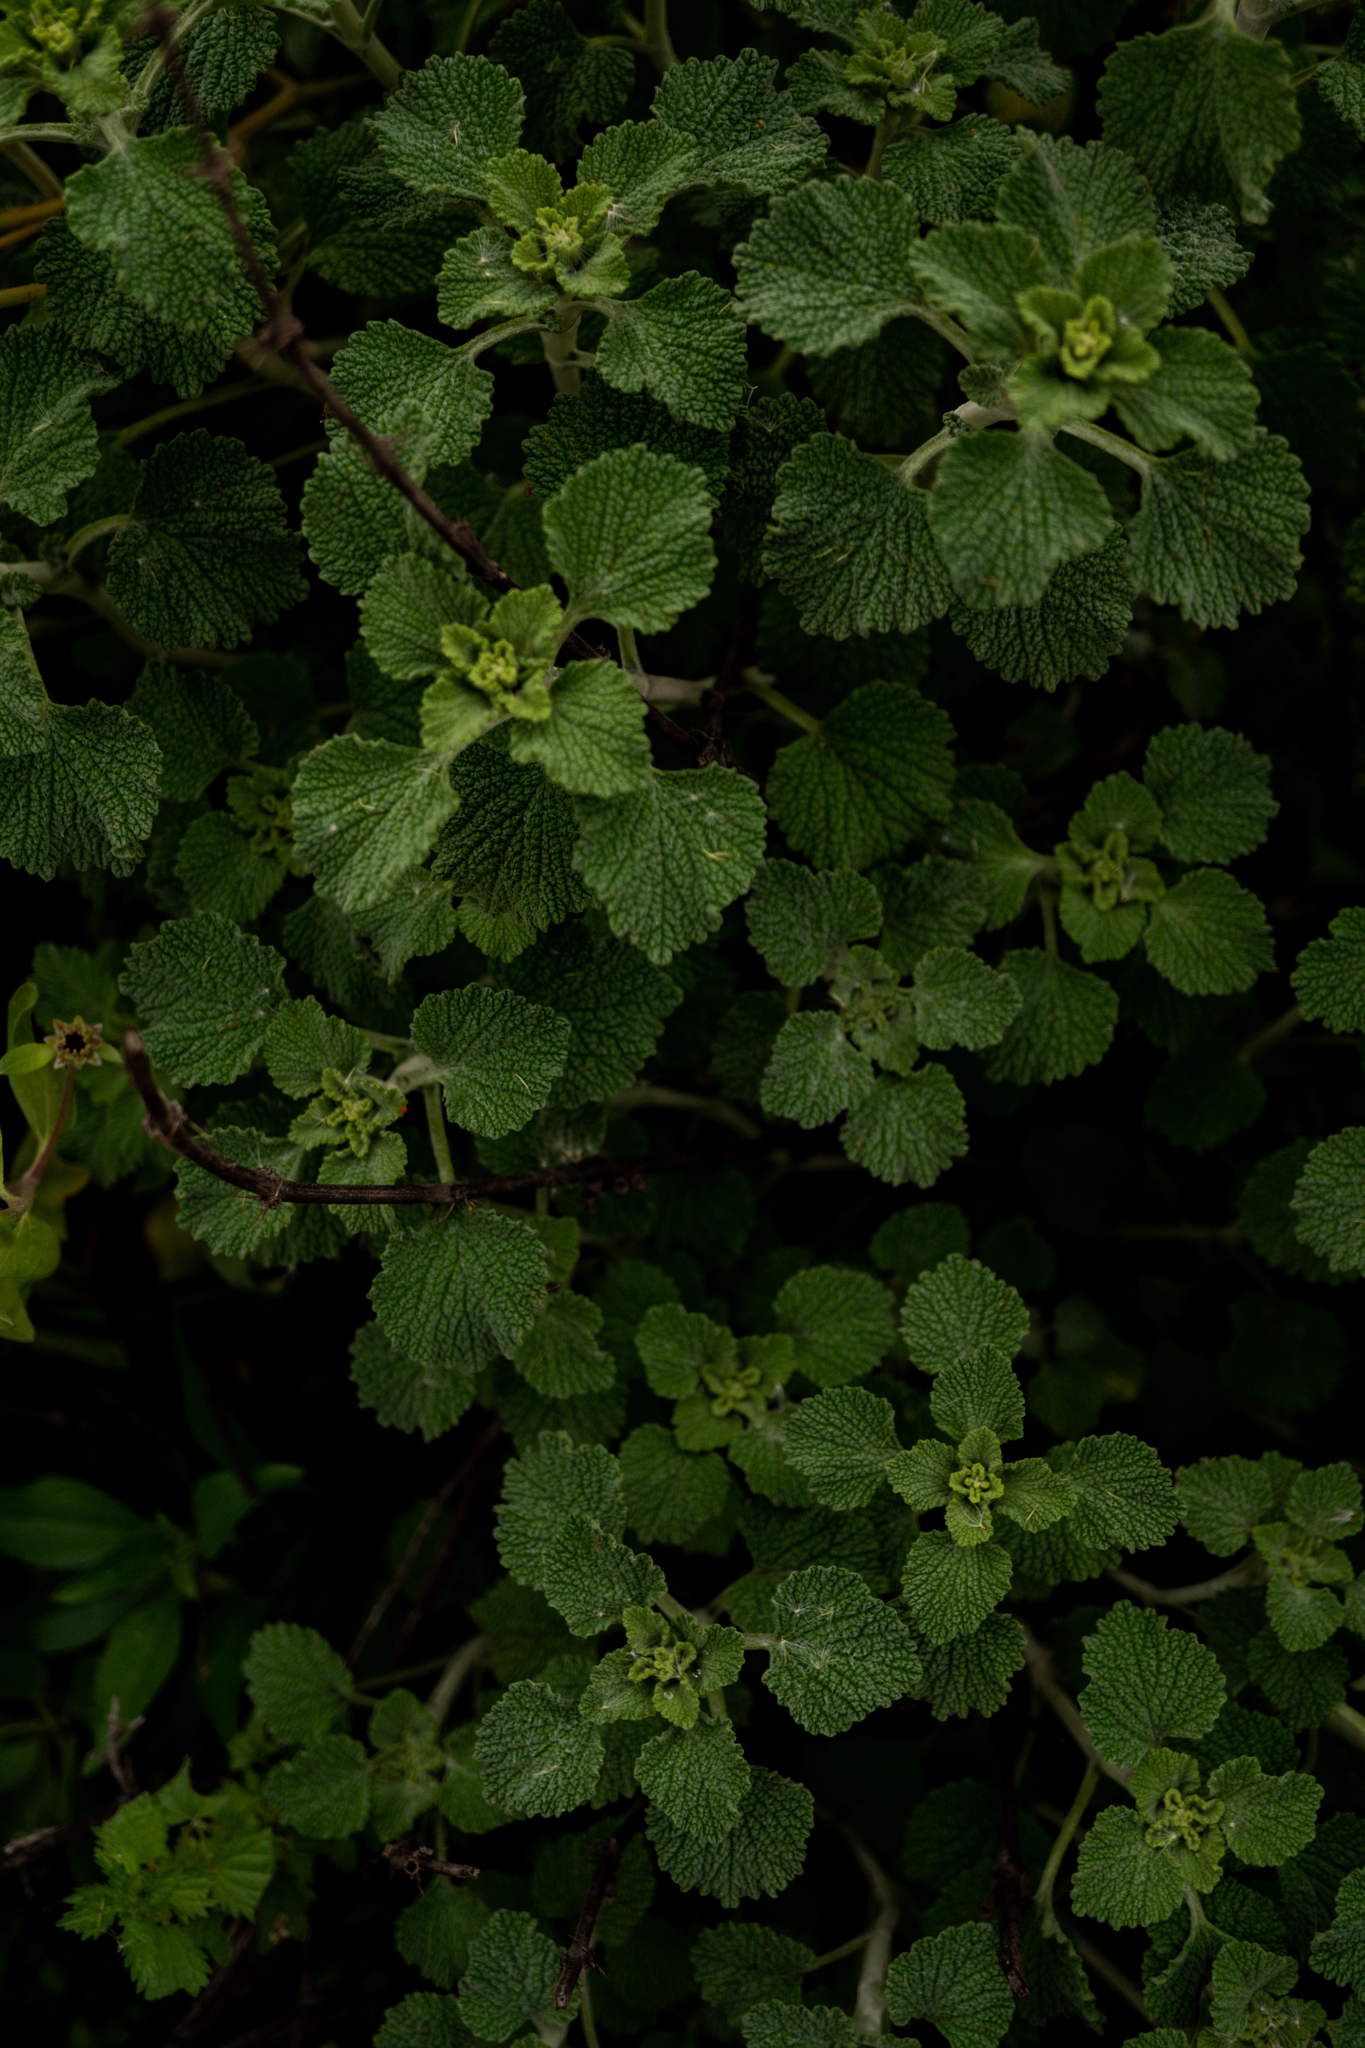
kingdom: Plantae
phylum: Tracheophyta
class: Magnoliopsida
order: Lamiales
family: Lamiaceae
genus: Marrubium
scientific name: Marrubium vulgare
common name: Horehound
